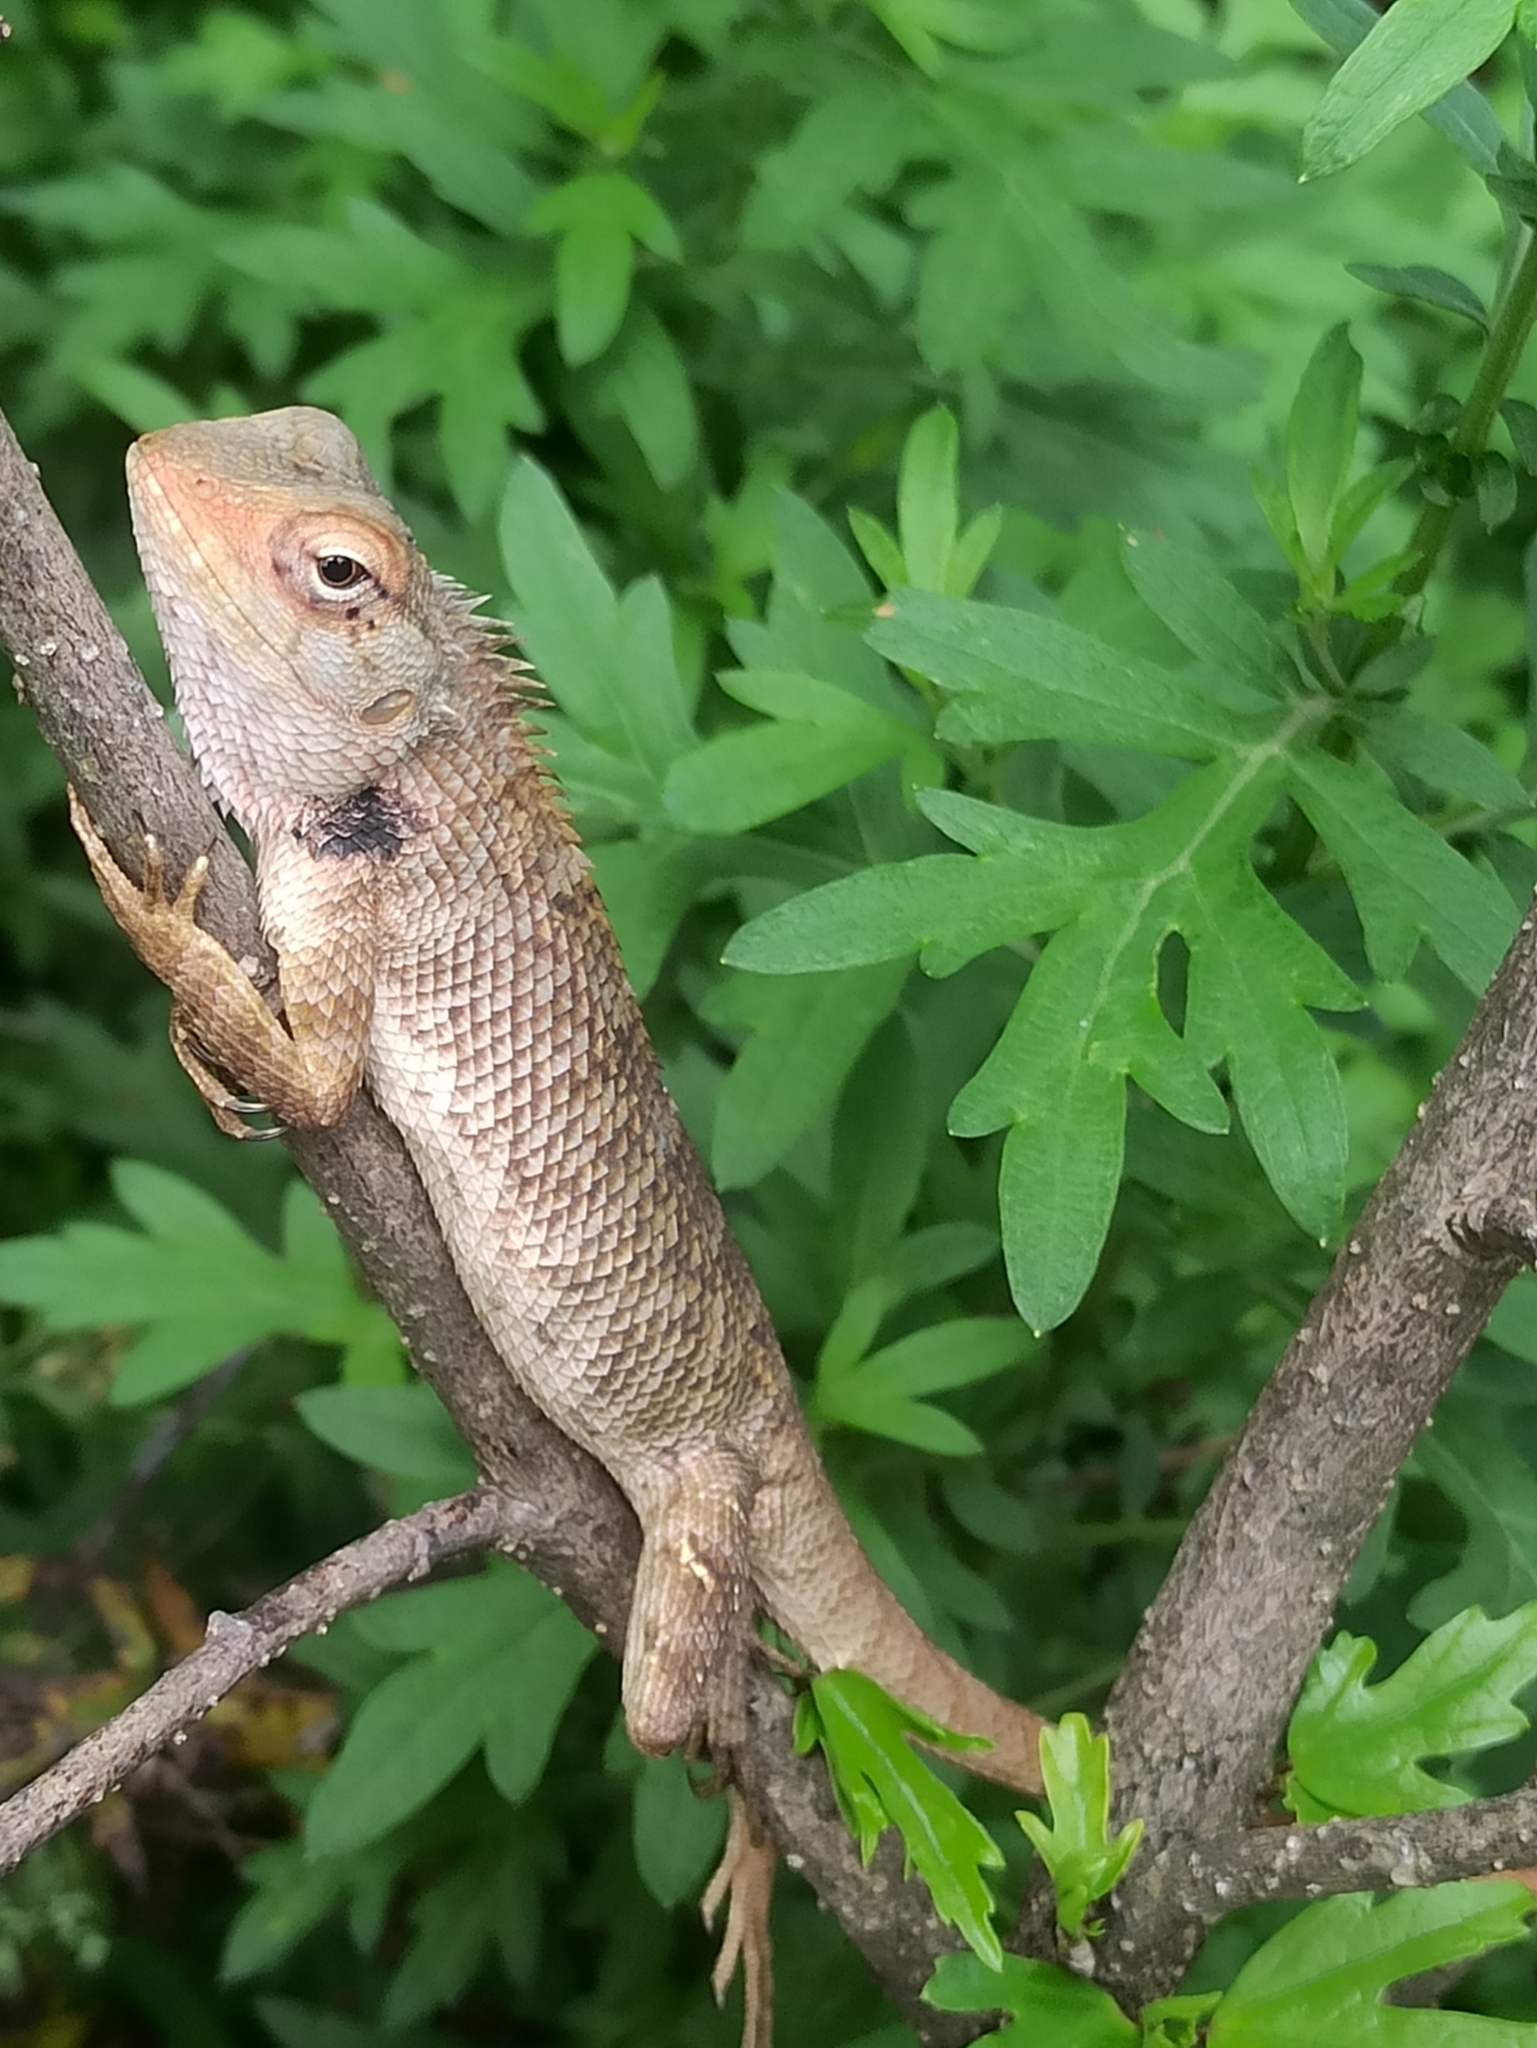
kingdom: Animalia
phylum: Chordata
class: Squamata
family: Agamidae
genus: Calotes
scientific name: Calotes versicolor
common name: Oriental garden lizard
